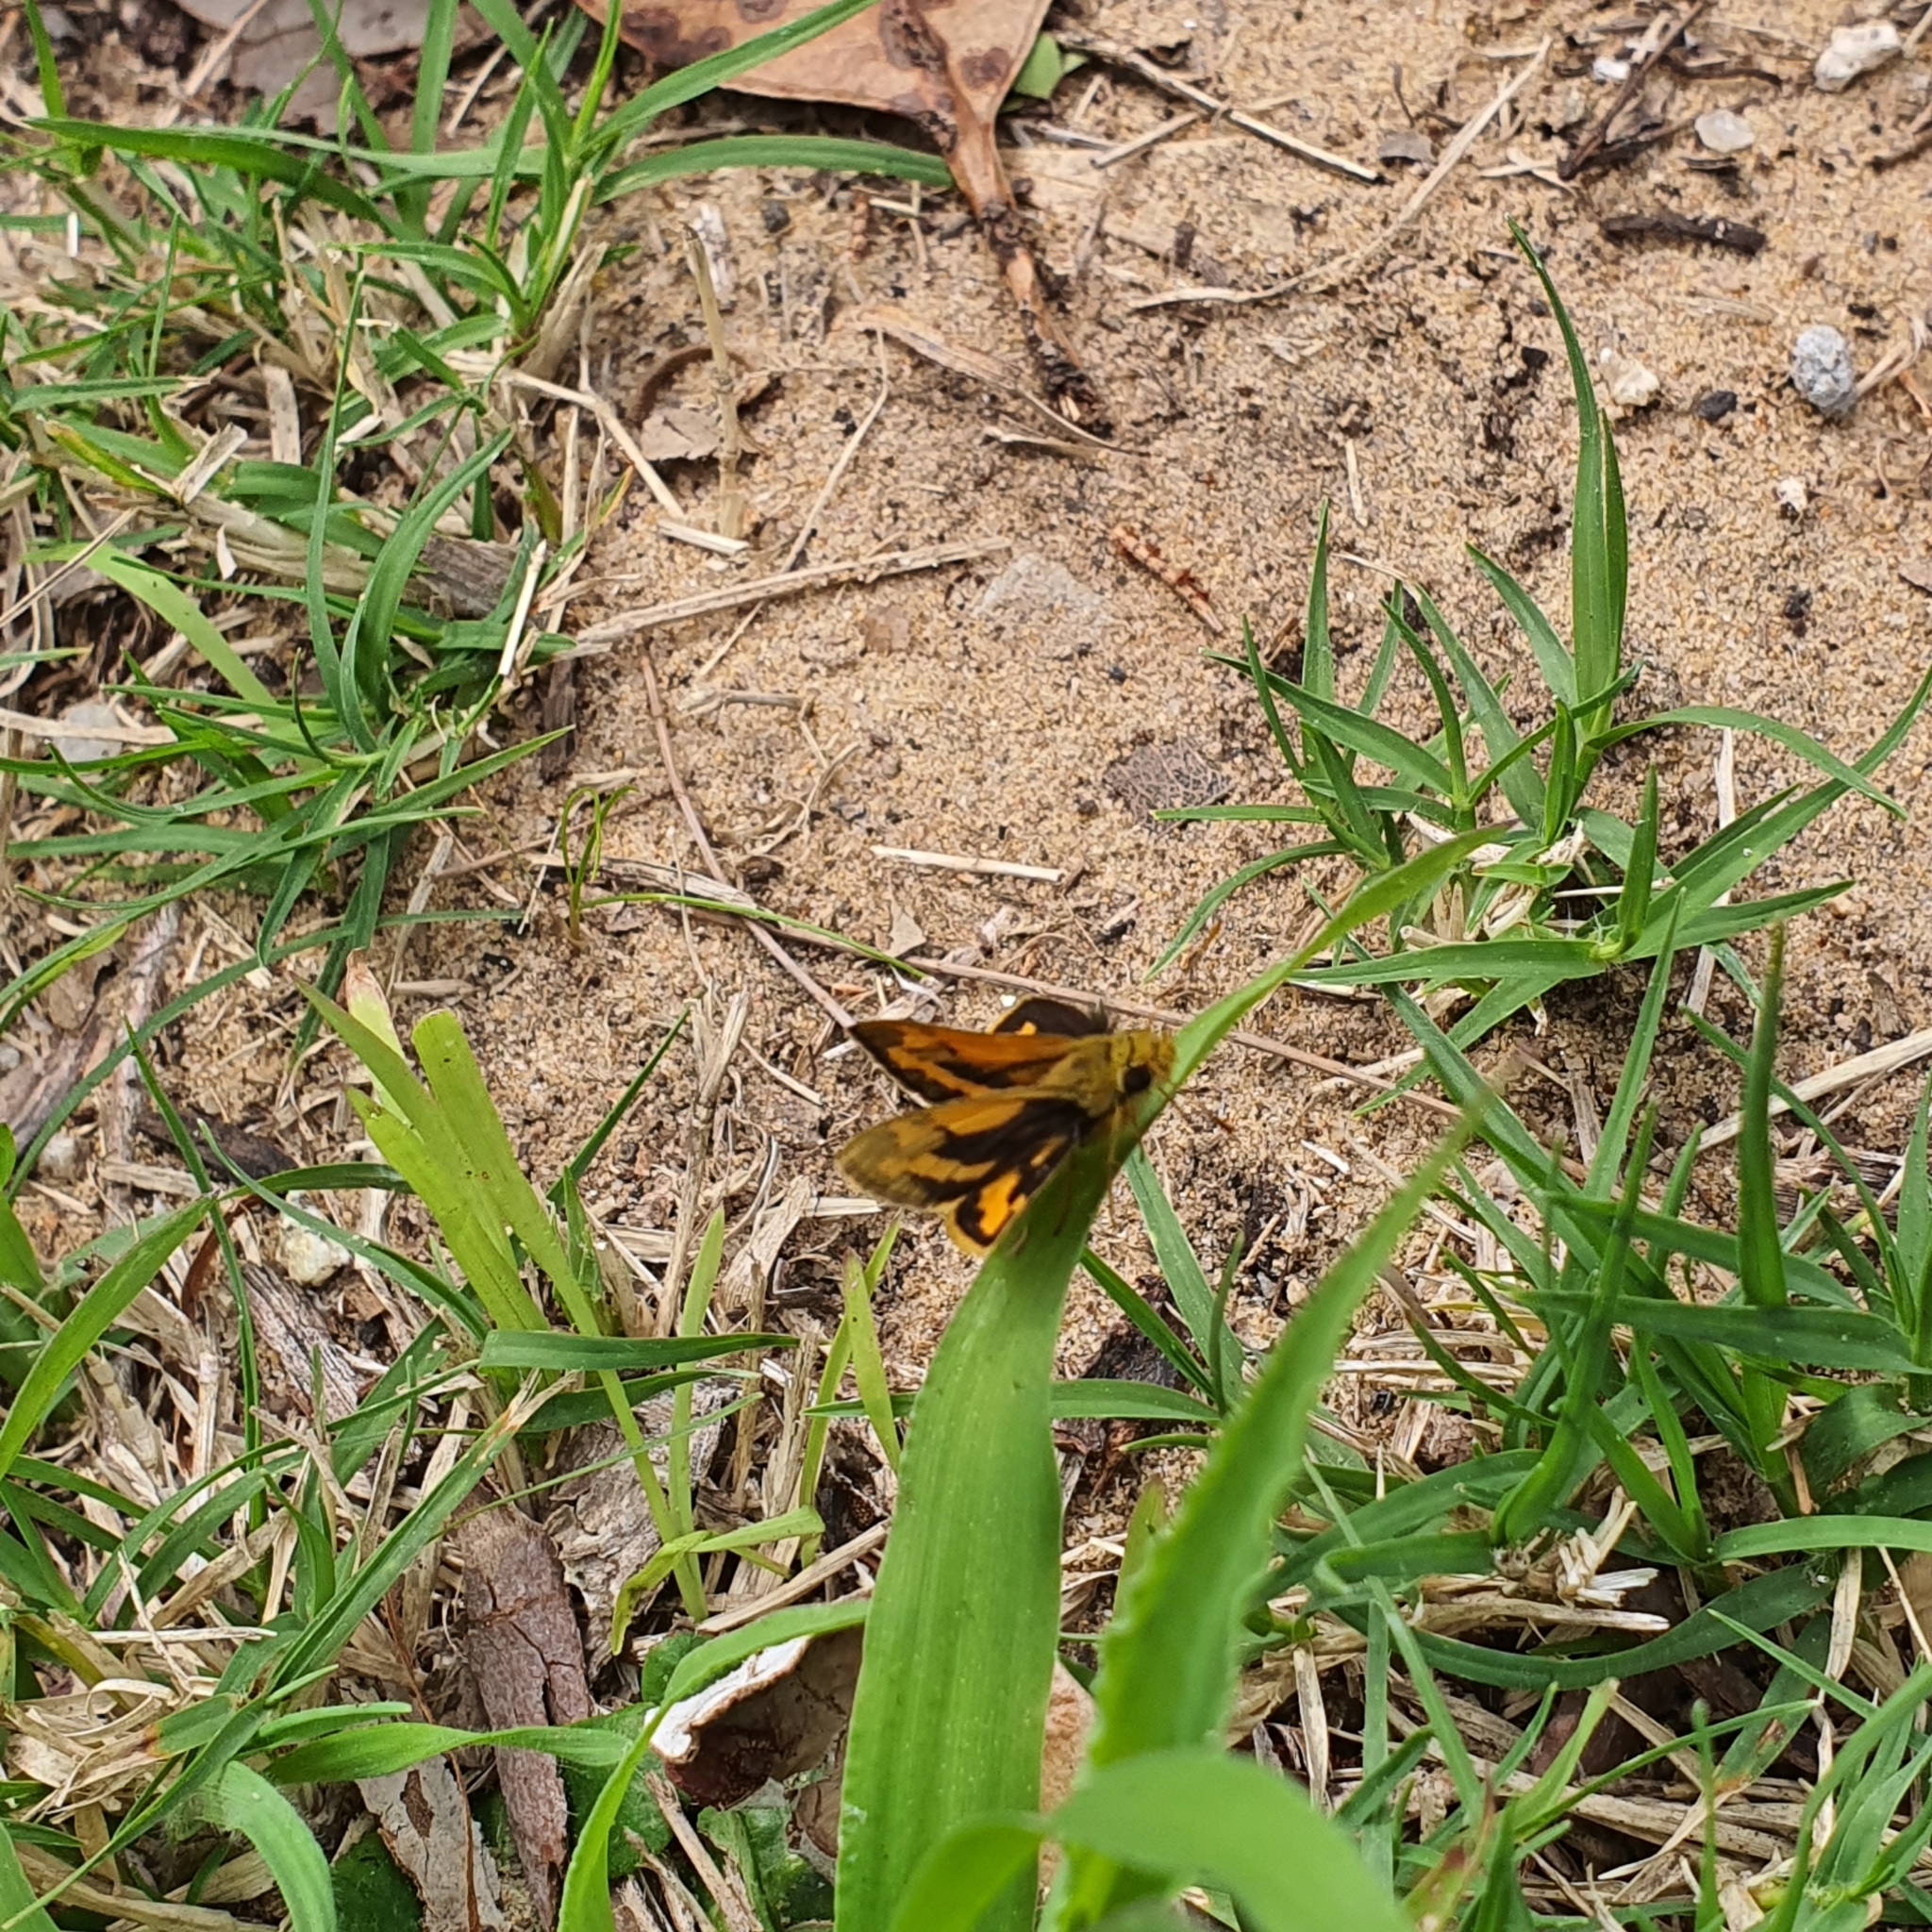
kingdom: Animalia
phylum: Arthropoda
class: Insecta
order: Lepidoptera
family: Hesperiidae
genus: Ocybadistes
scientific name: Ocybadistes walkeri
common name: Yellow-banded dart
